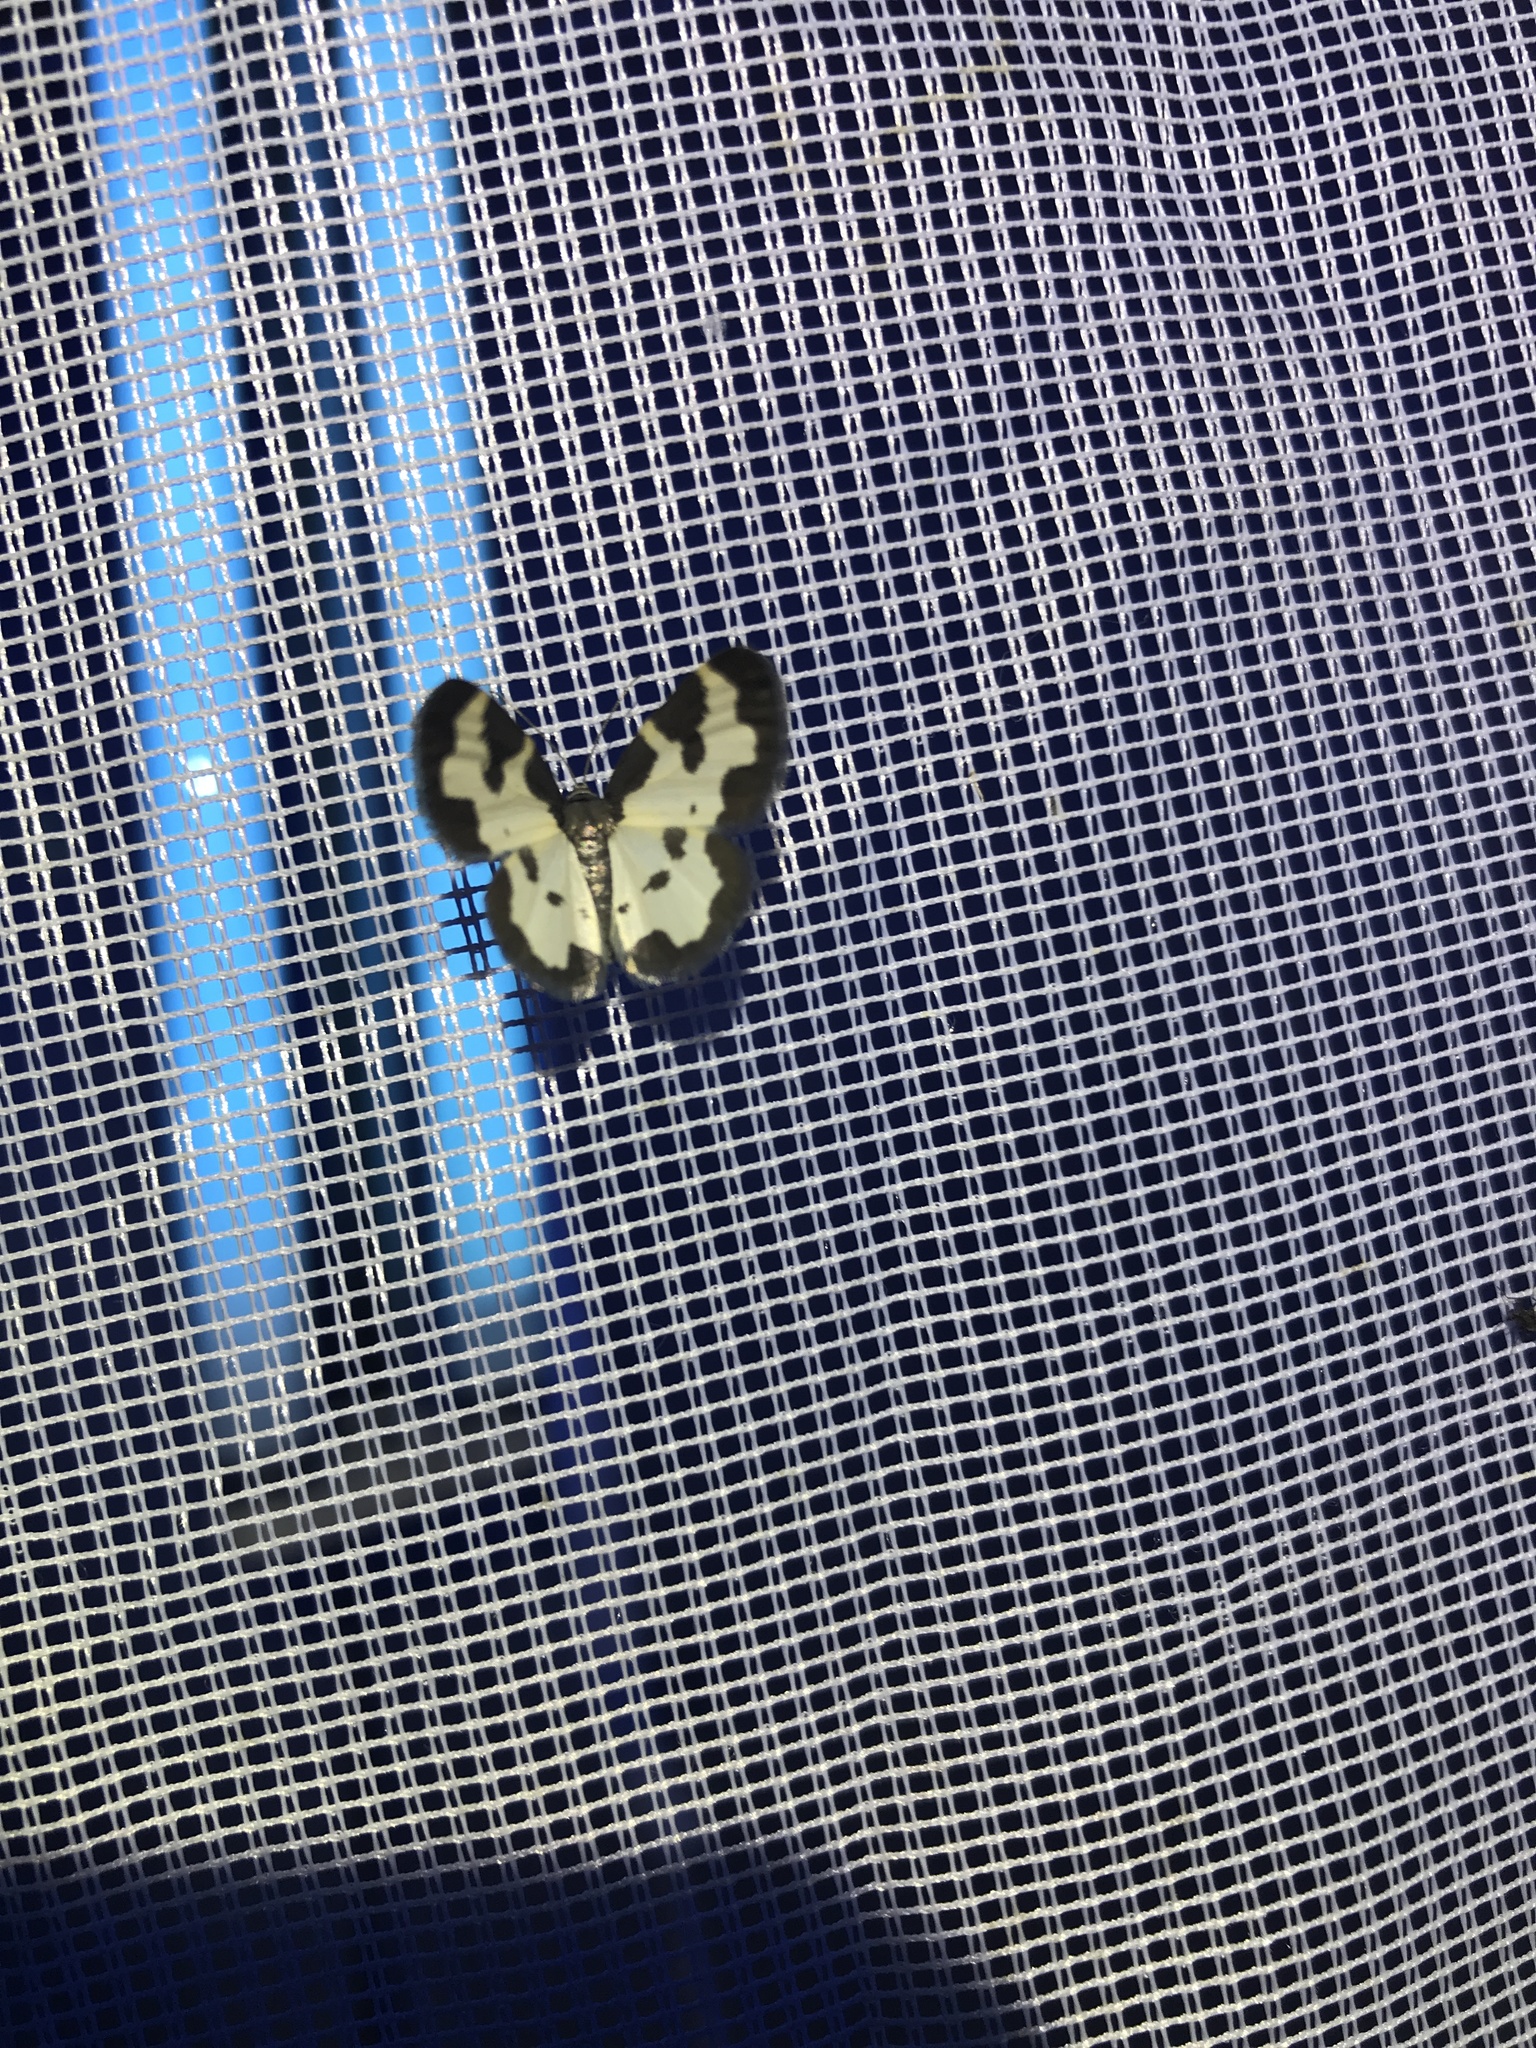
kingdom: Animalia
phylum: Arthropoda
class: Insecta
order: Lepidoptera
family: Geometridae
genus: Lomaspilis
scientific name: Lomaspilis marginata
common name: Clouded border
